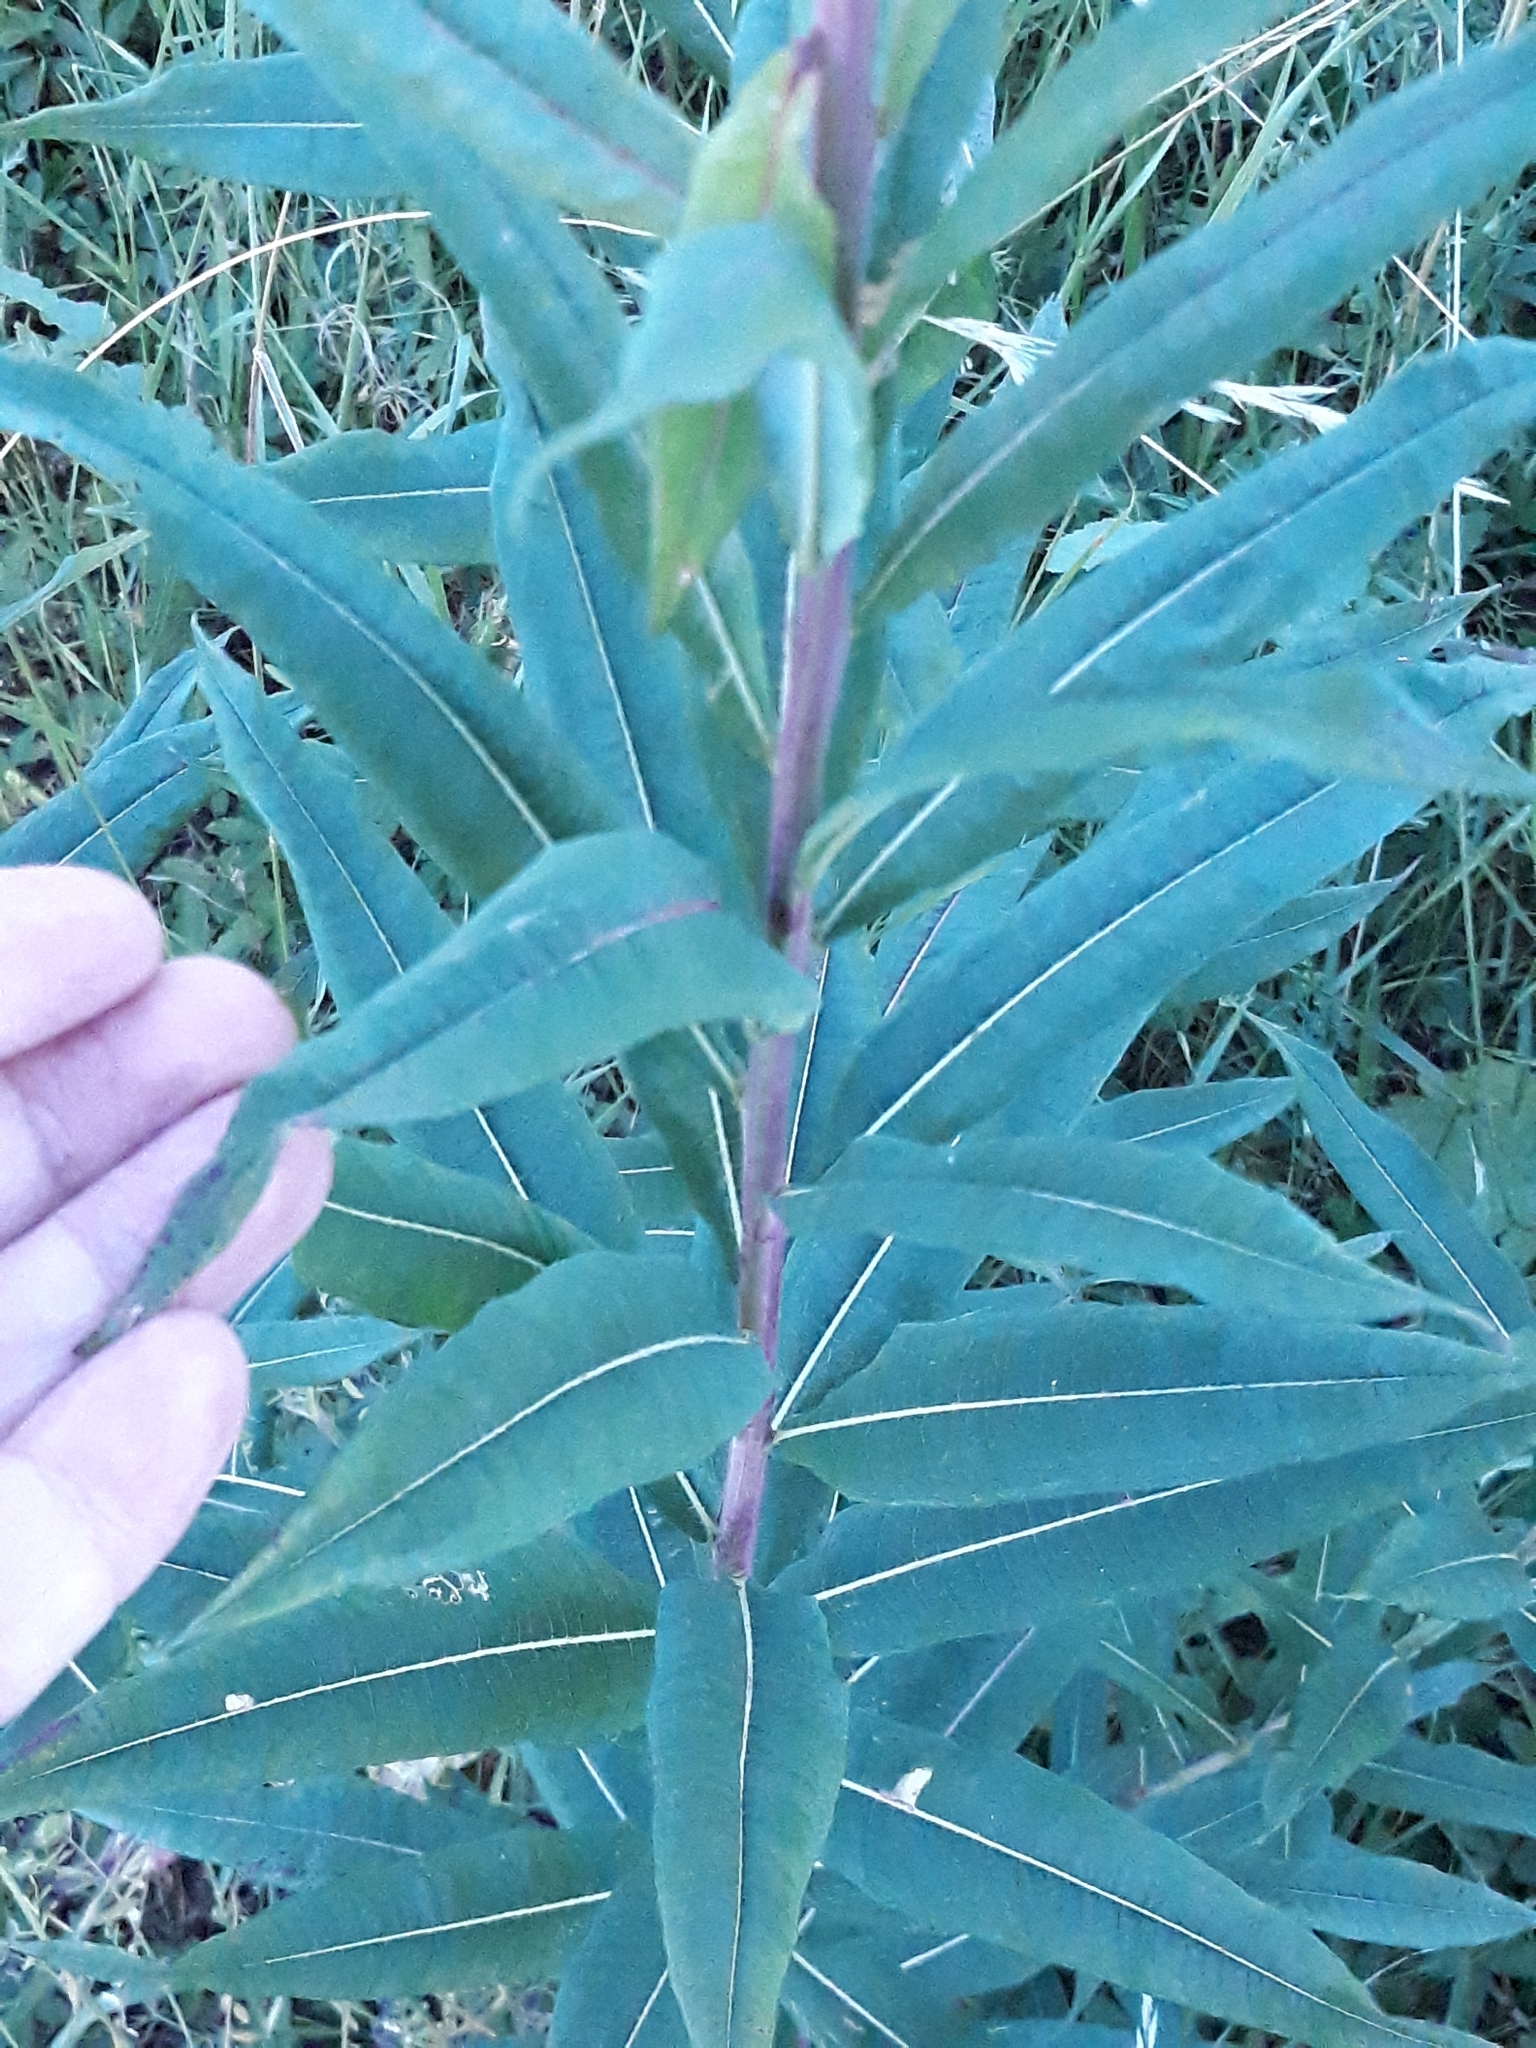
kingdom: Plantae
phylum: Tracheophyta
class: Magnoliopsida
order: Myrtales
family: Onagraceae
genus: Chamaenerion
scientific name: Chamaenerion angustifolium
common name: Fireweed
